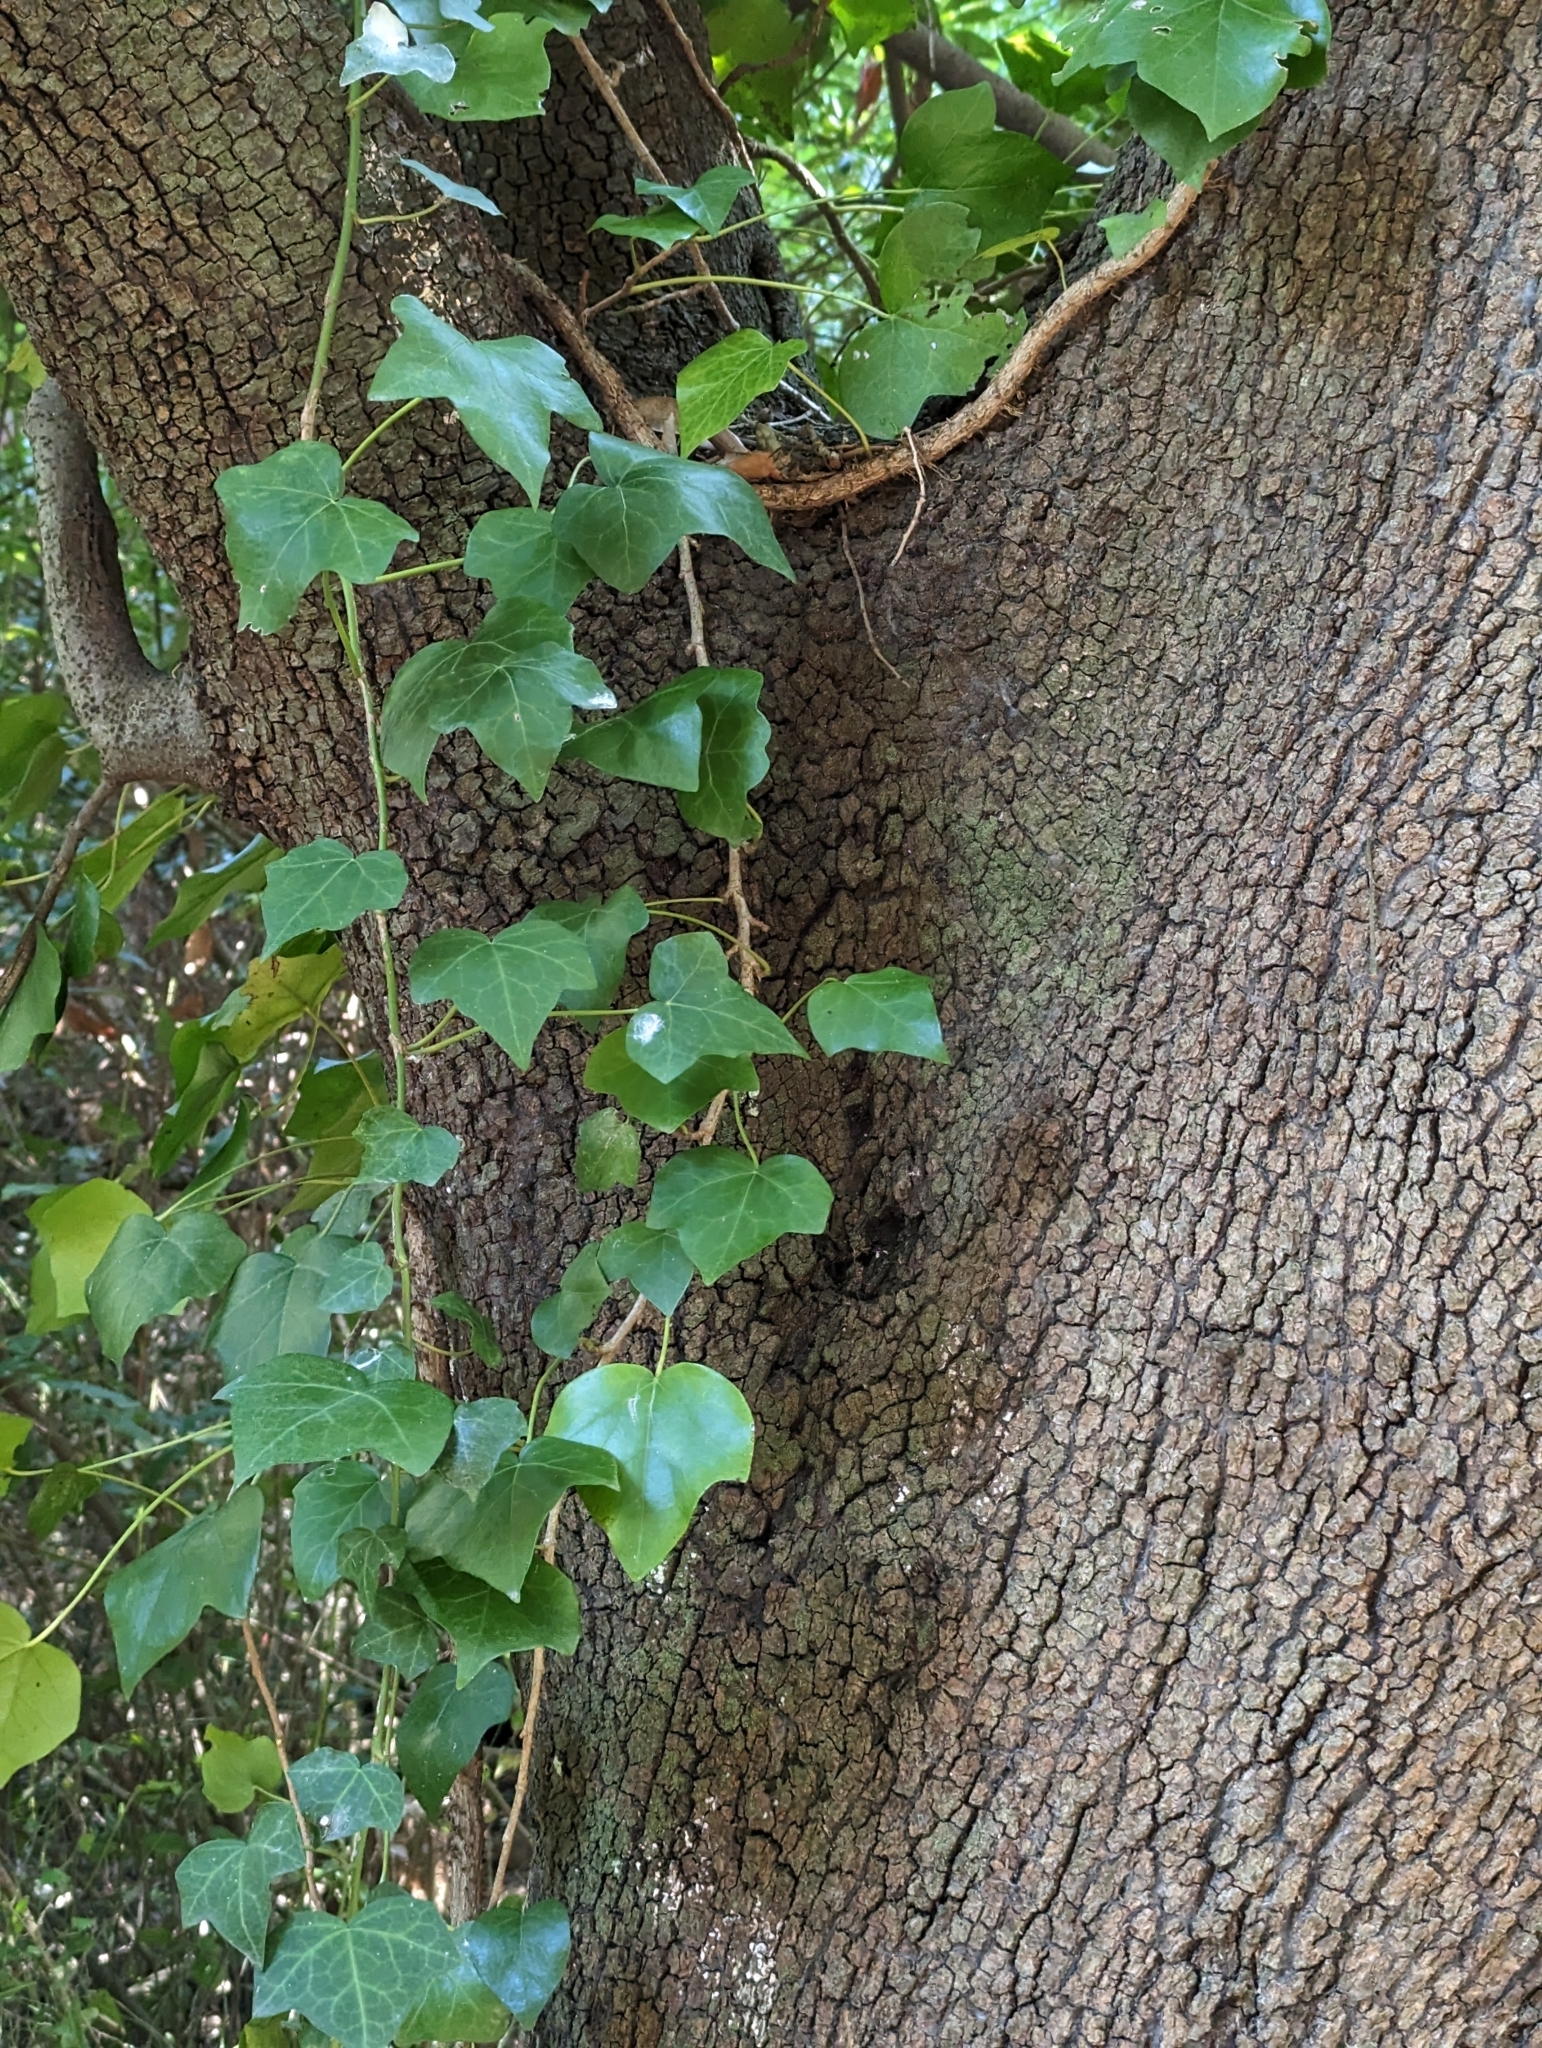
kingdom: Plantae
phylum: Tracheophyta
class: Magnoliopsida
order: Apiales
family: Araliaceae
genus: Hedera
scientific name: Hedera helix
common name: Ivy
